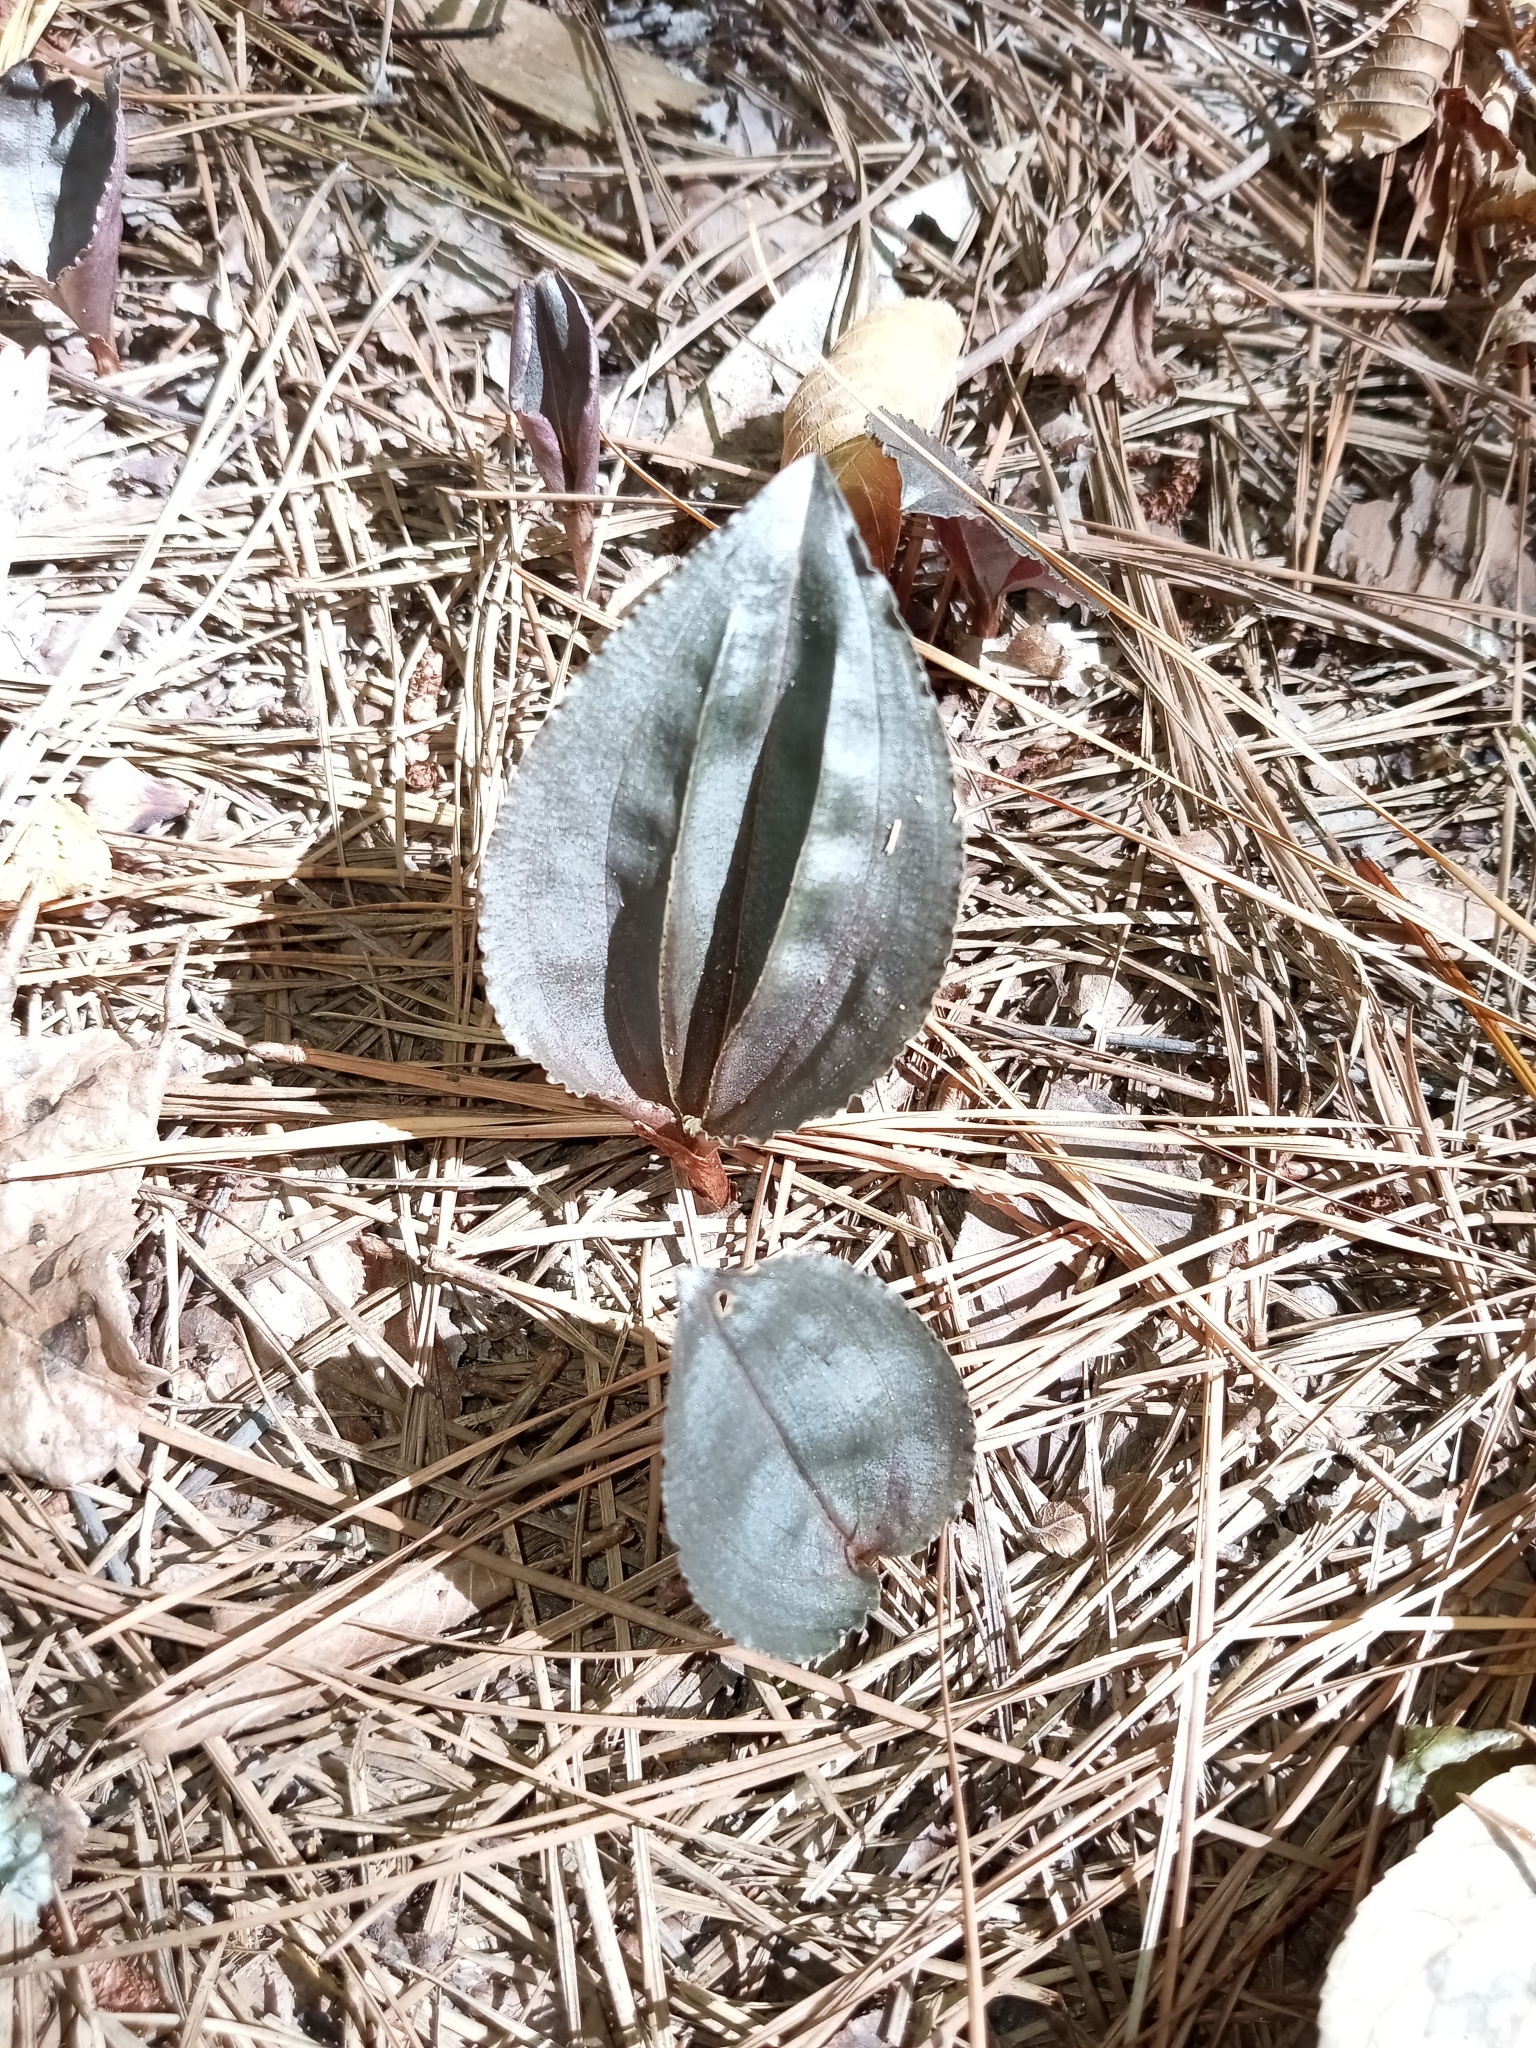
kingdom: Plantae
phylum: Tracheophyta
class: Liliopsida
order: Asparagales
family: Orchidaceae
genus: Tipularia
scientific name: Tipularia discolor
